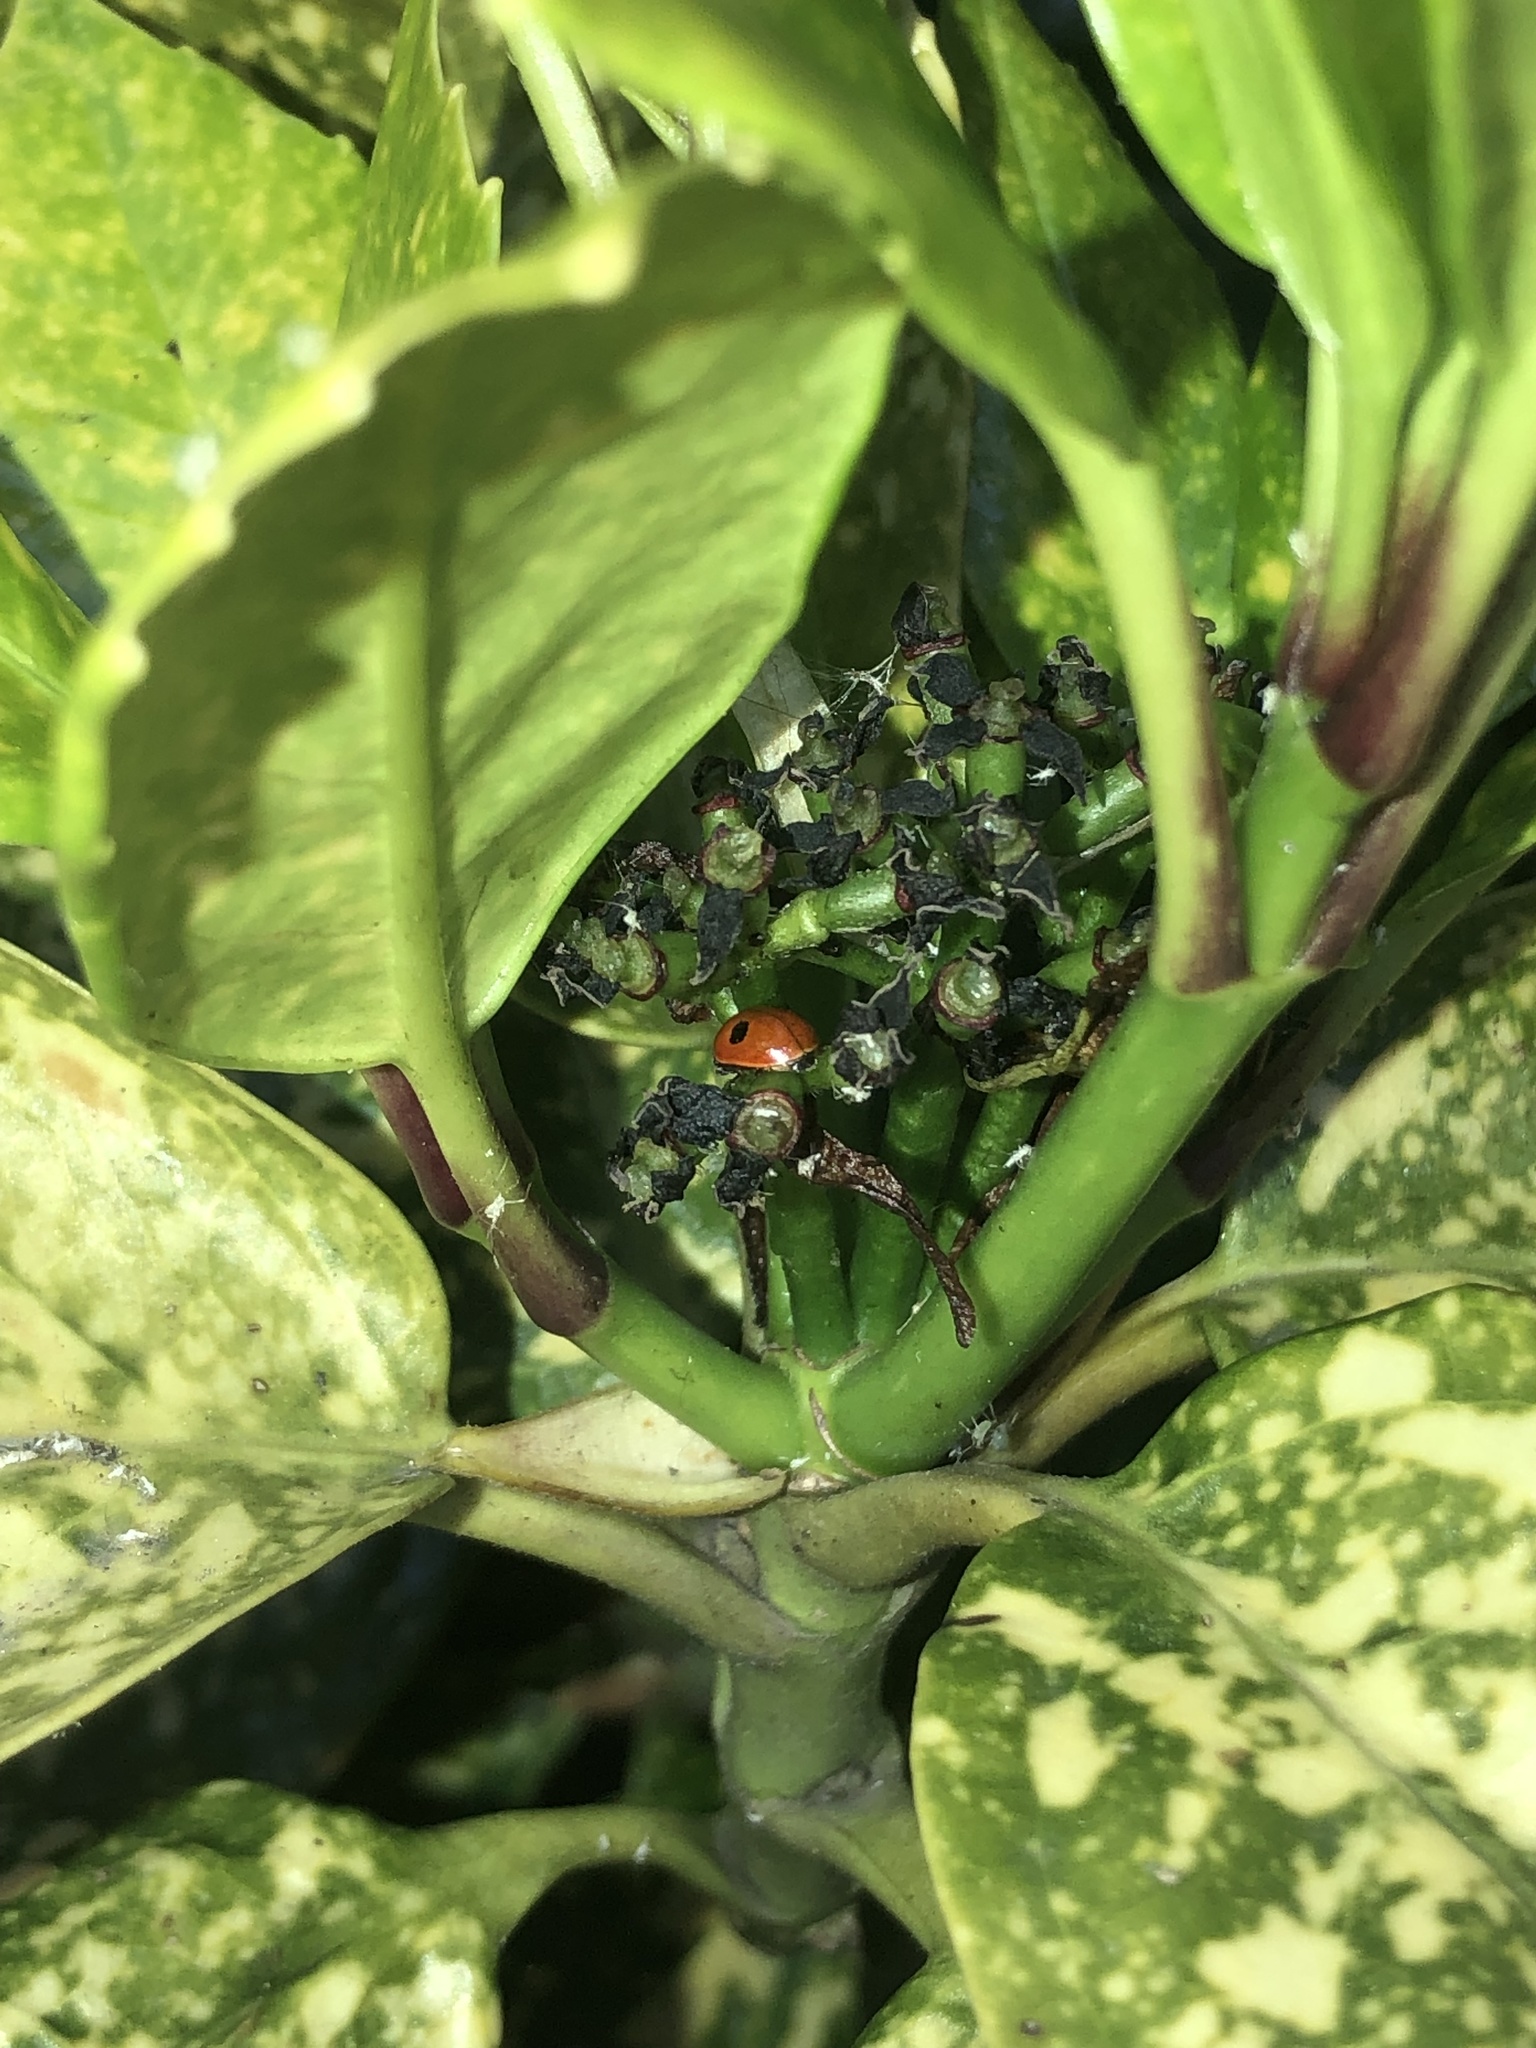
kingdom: Animalia
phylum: Arthropoda
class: Insecta
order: Coleoptera
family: Coccinellidae
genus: Adalia
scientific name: Adalia bipunctata
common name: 2-spot ladybird
